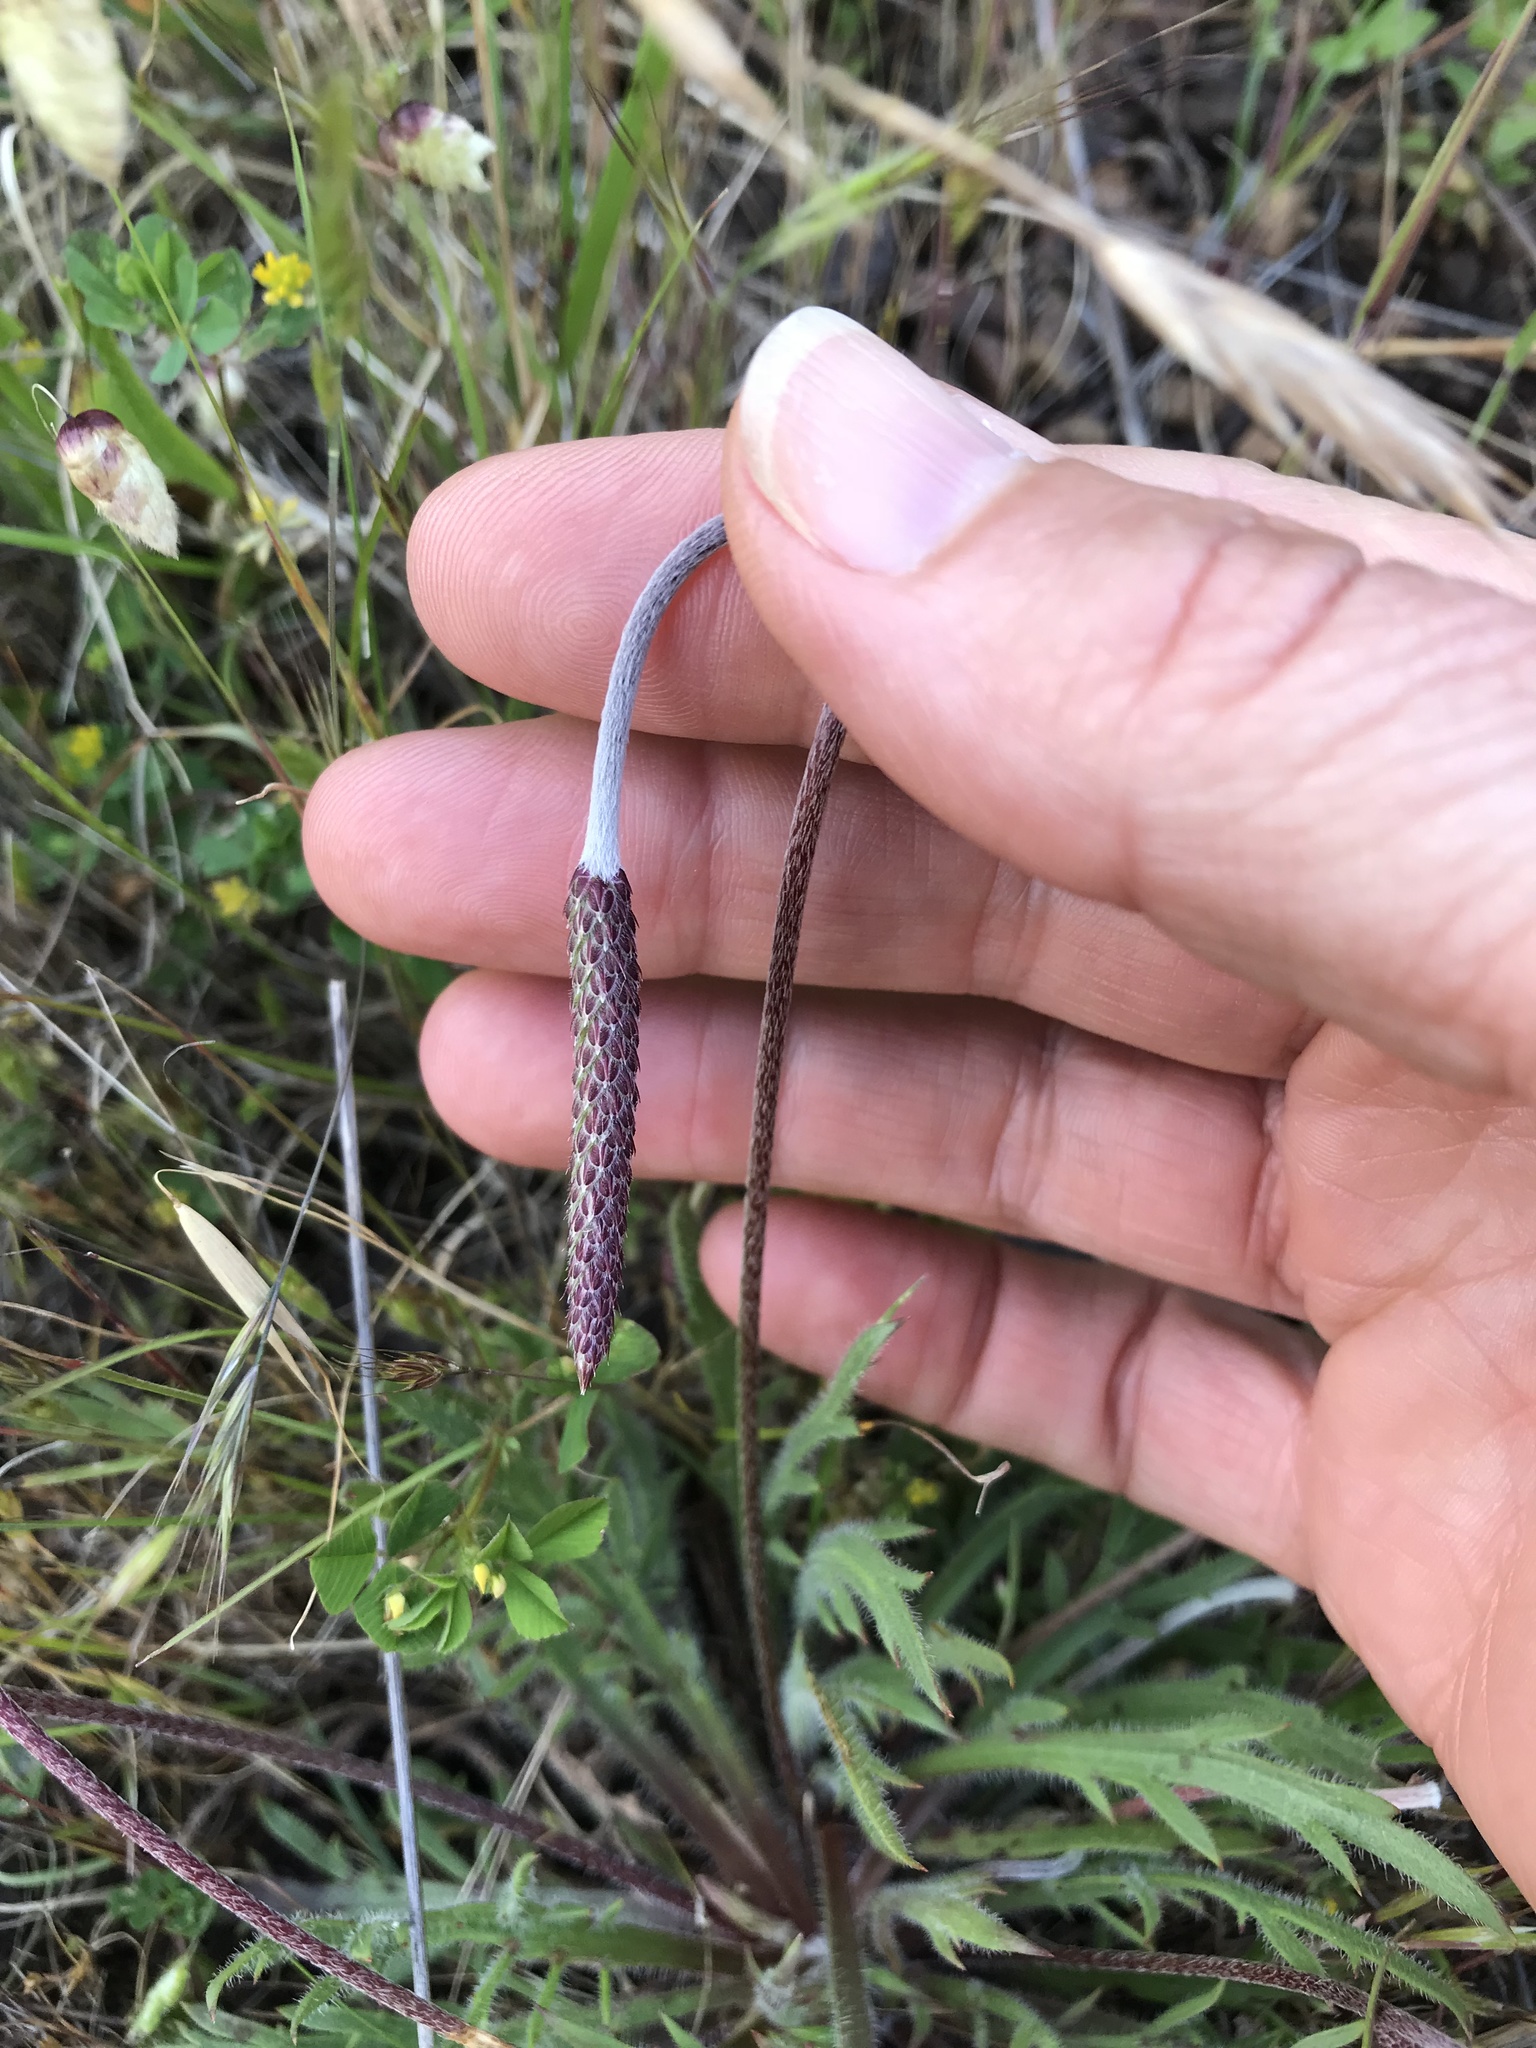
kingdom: Plantae
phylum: Tracheophyta
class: Magnoliopsida
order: Lamiales
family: Plantaginaceae
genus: Plantago
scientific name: Plantago coronopus
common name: Buck's-horn plantain
